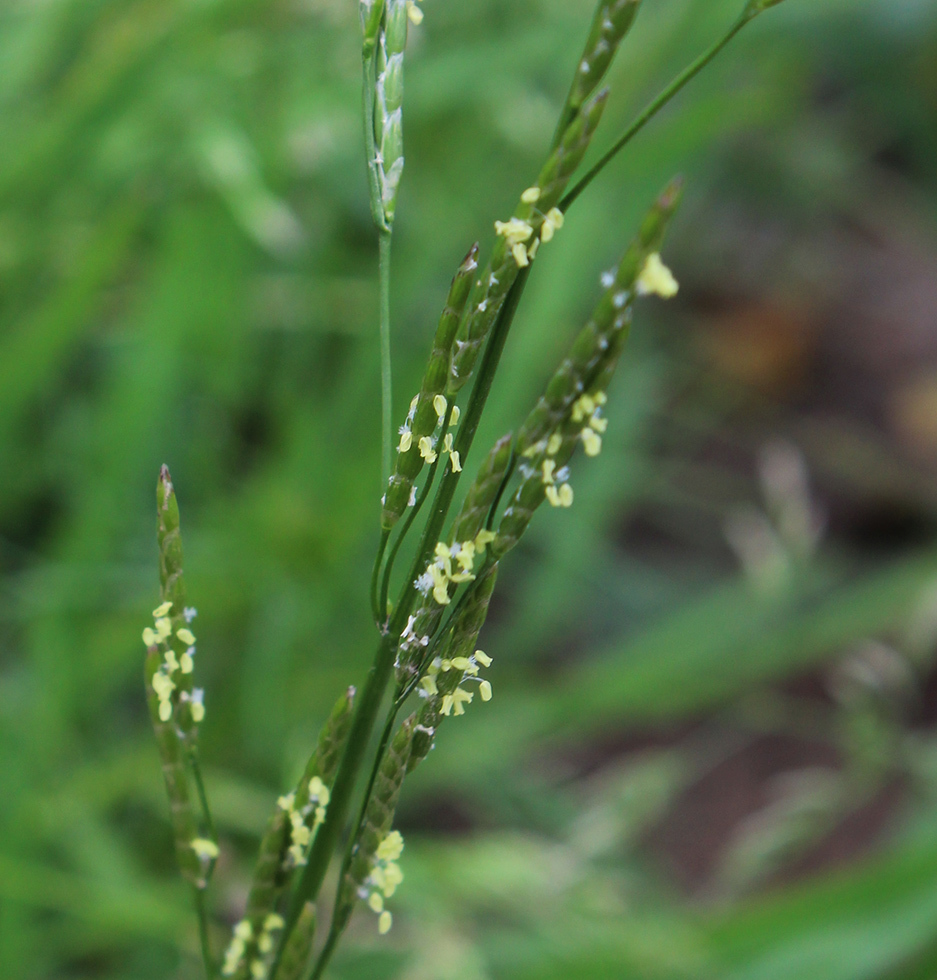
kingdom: Plantae
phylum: Tracheophyta
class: Liliopsida
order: Poales
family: Poaceae
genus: Glyceria
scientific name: Glyceria notata
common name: Plicate sweet-grass
